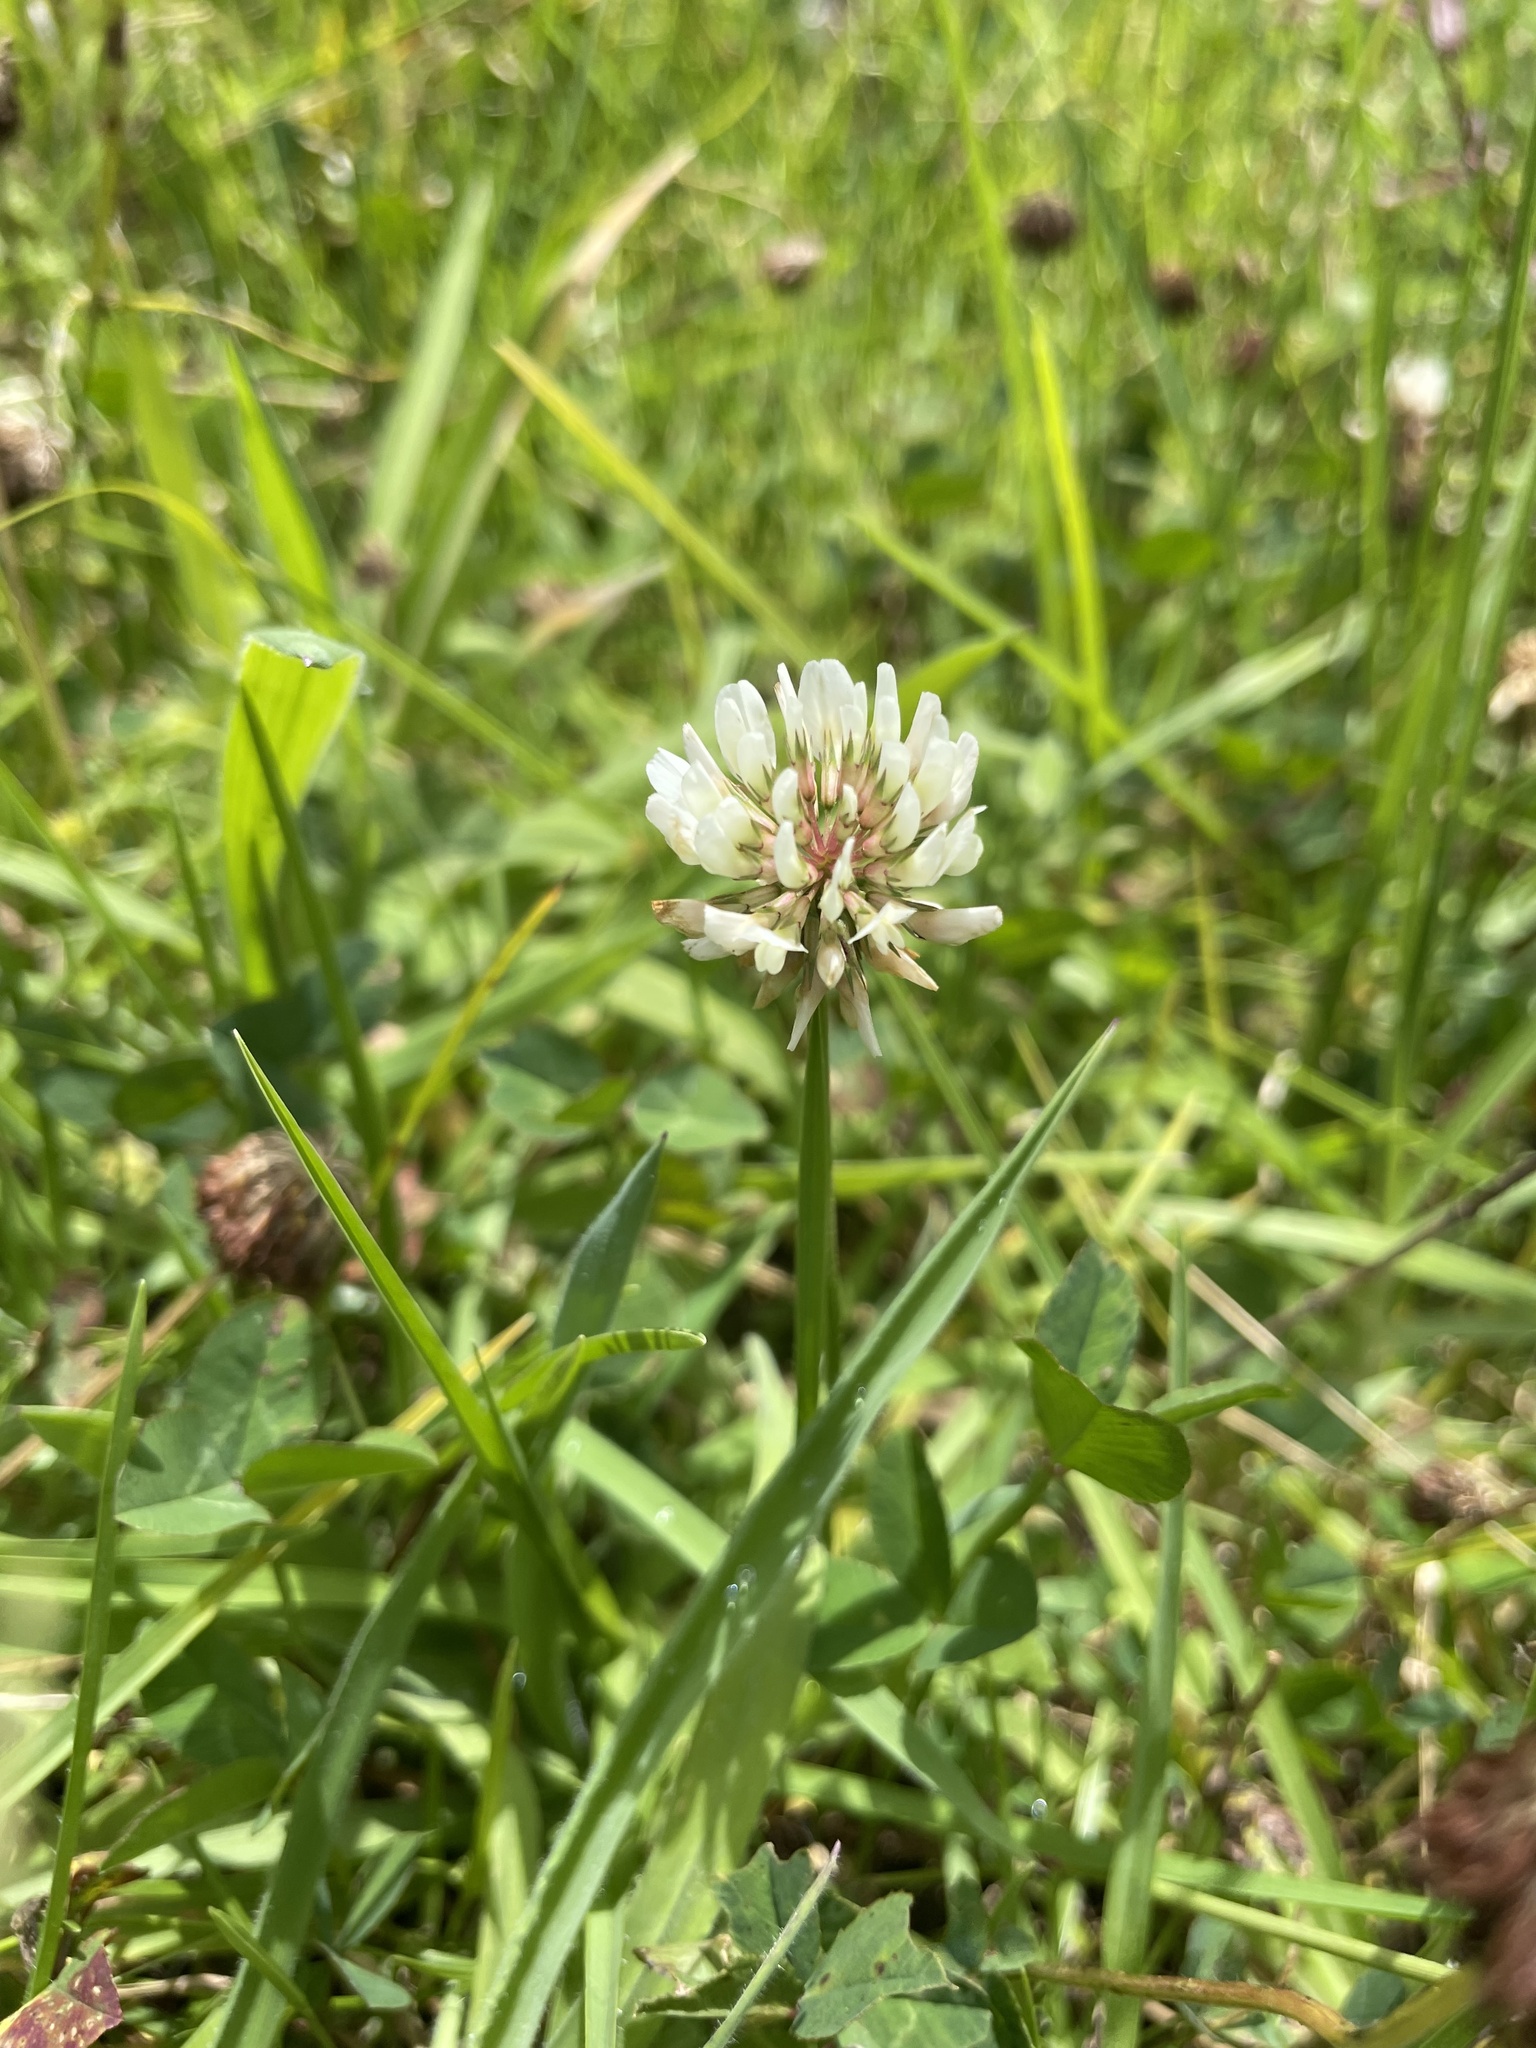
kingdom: Plantae
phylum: Tracheophyta
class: Magnoliopsida
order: Fabales
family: Fabaceae
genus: Trifolium
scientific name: Trifolium repens
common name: White clover
